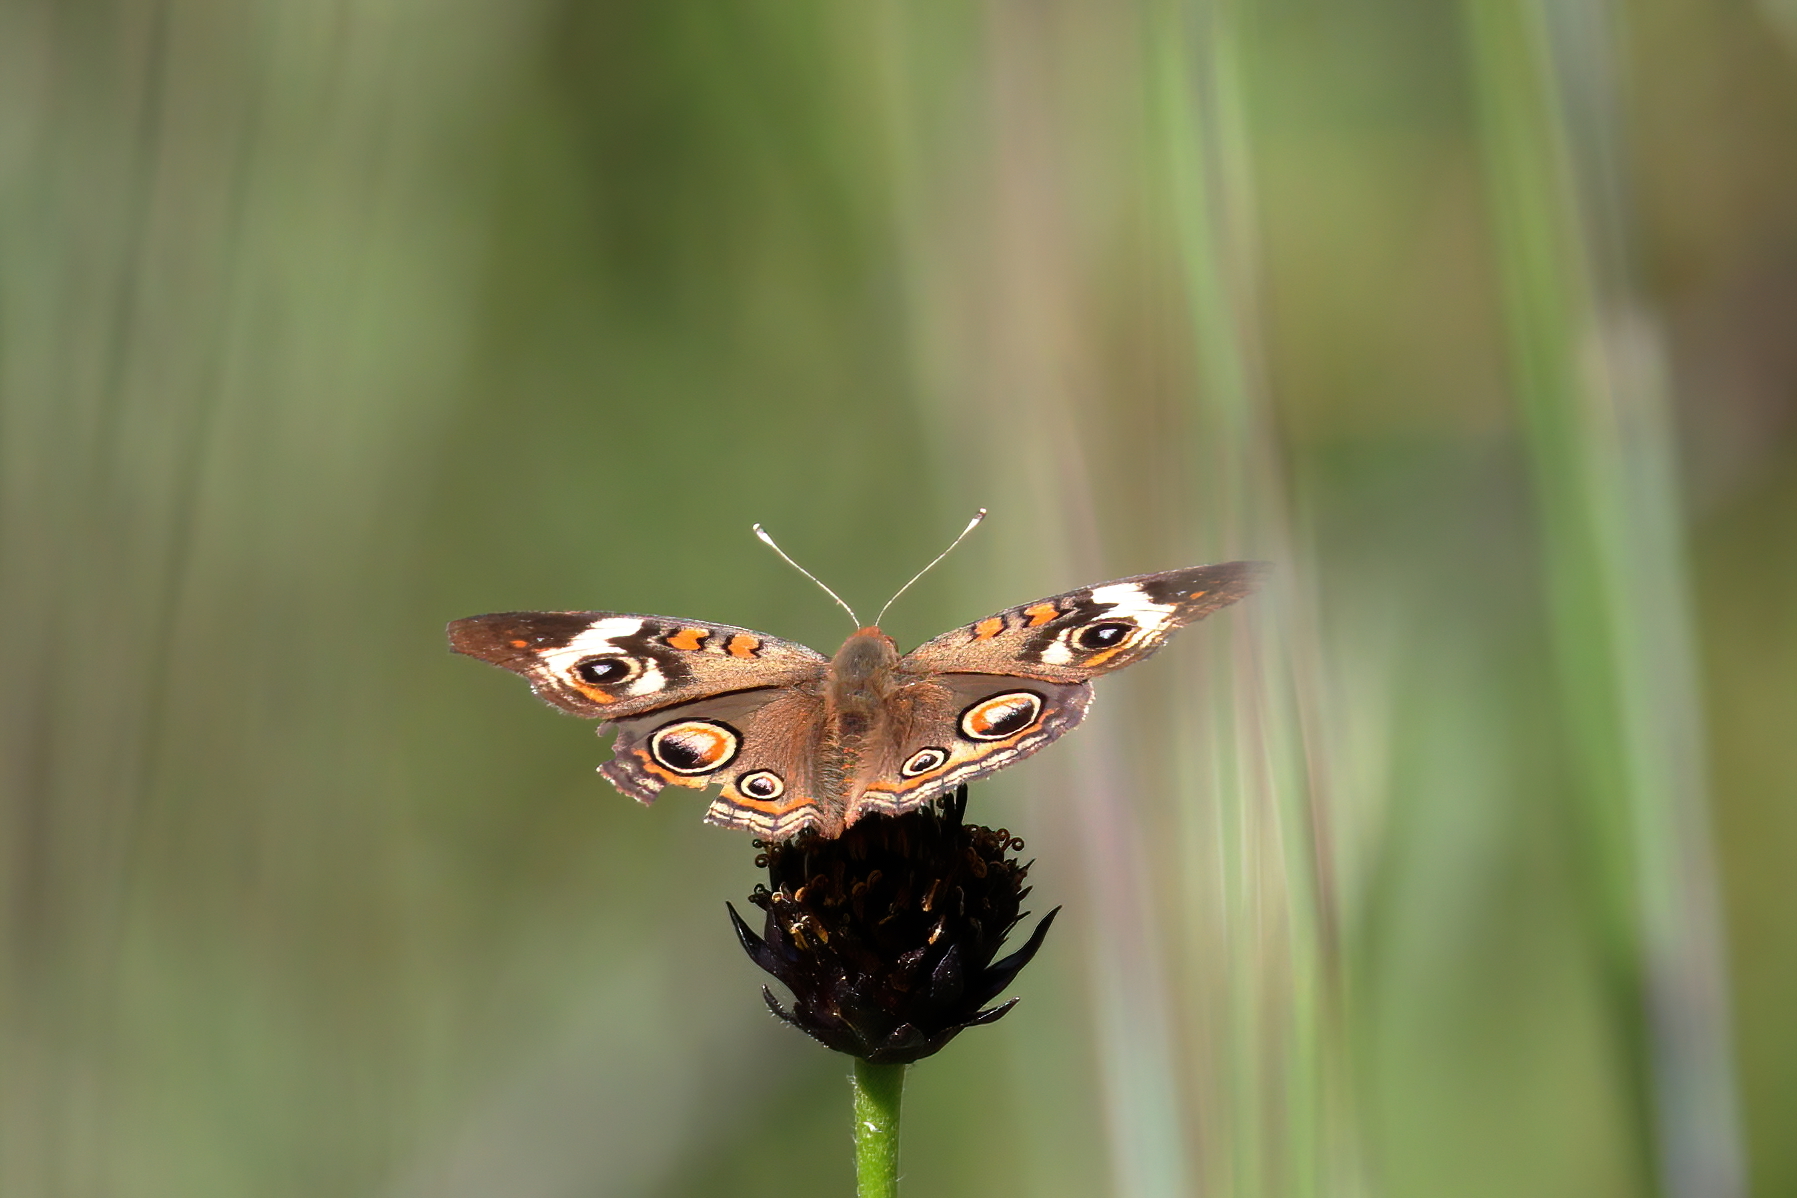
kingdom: Animalia
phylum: Arthropoda
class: Insecta
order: Lepidoptera
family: Nymphalidae
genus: Junonia
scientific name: Junonia coenia
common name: Common buckeye
